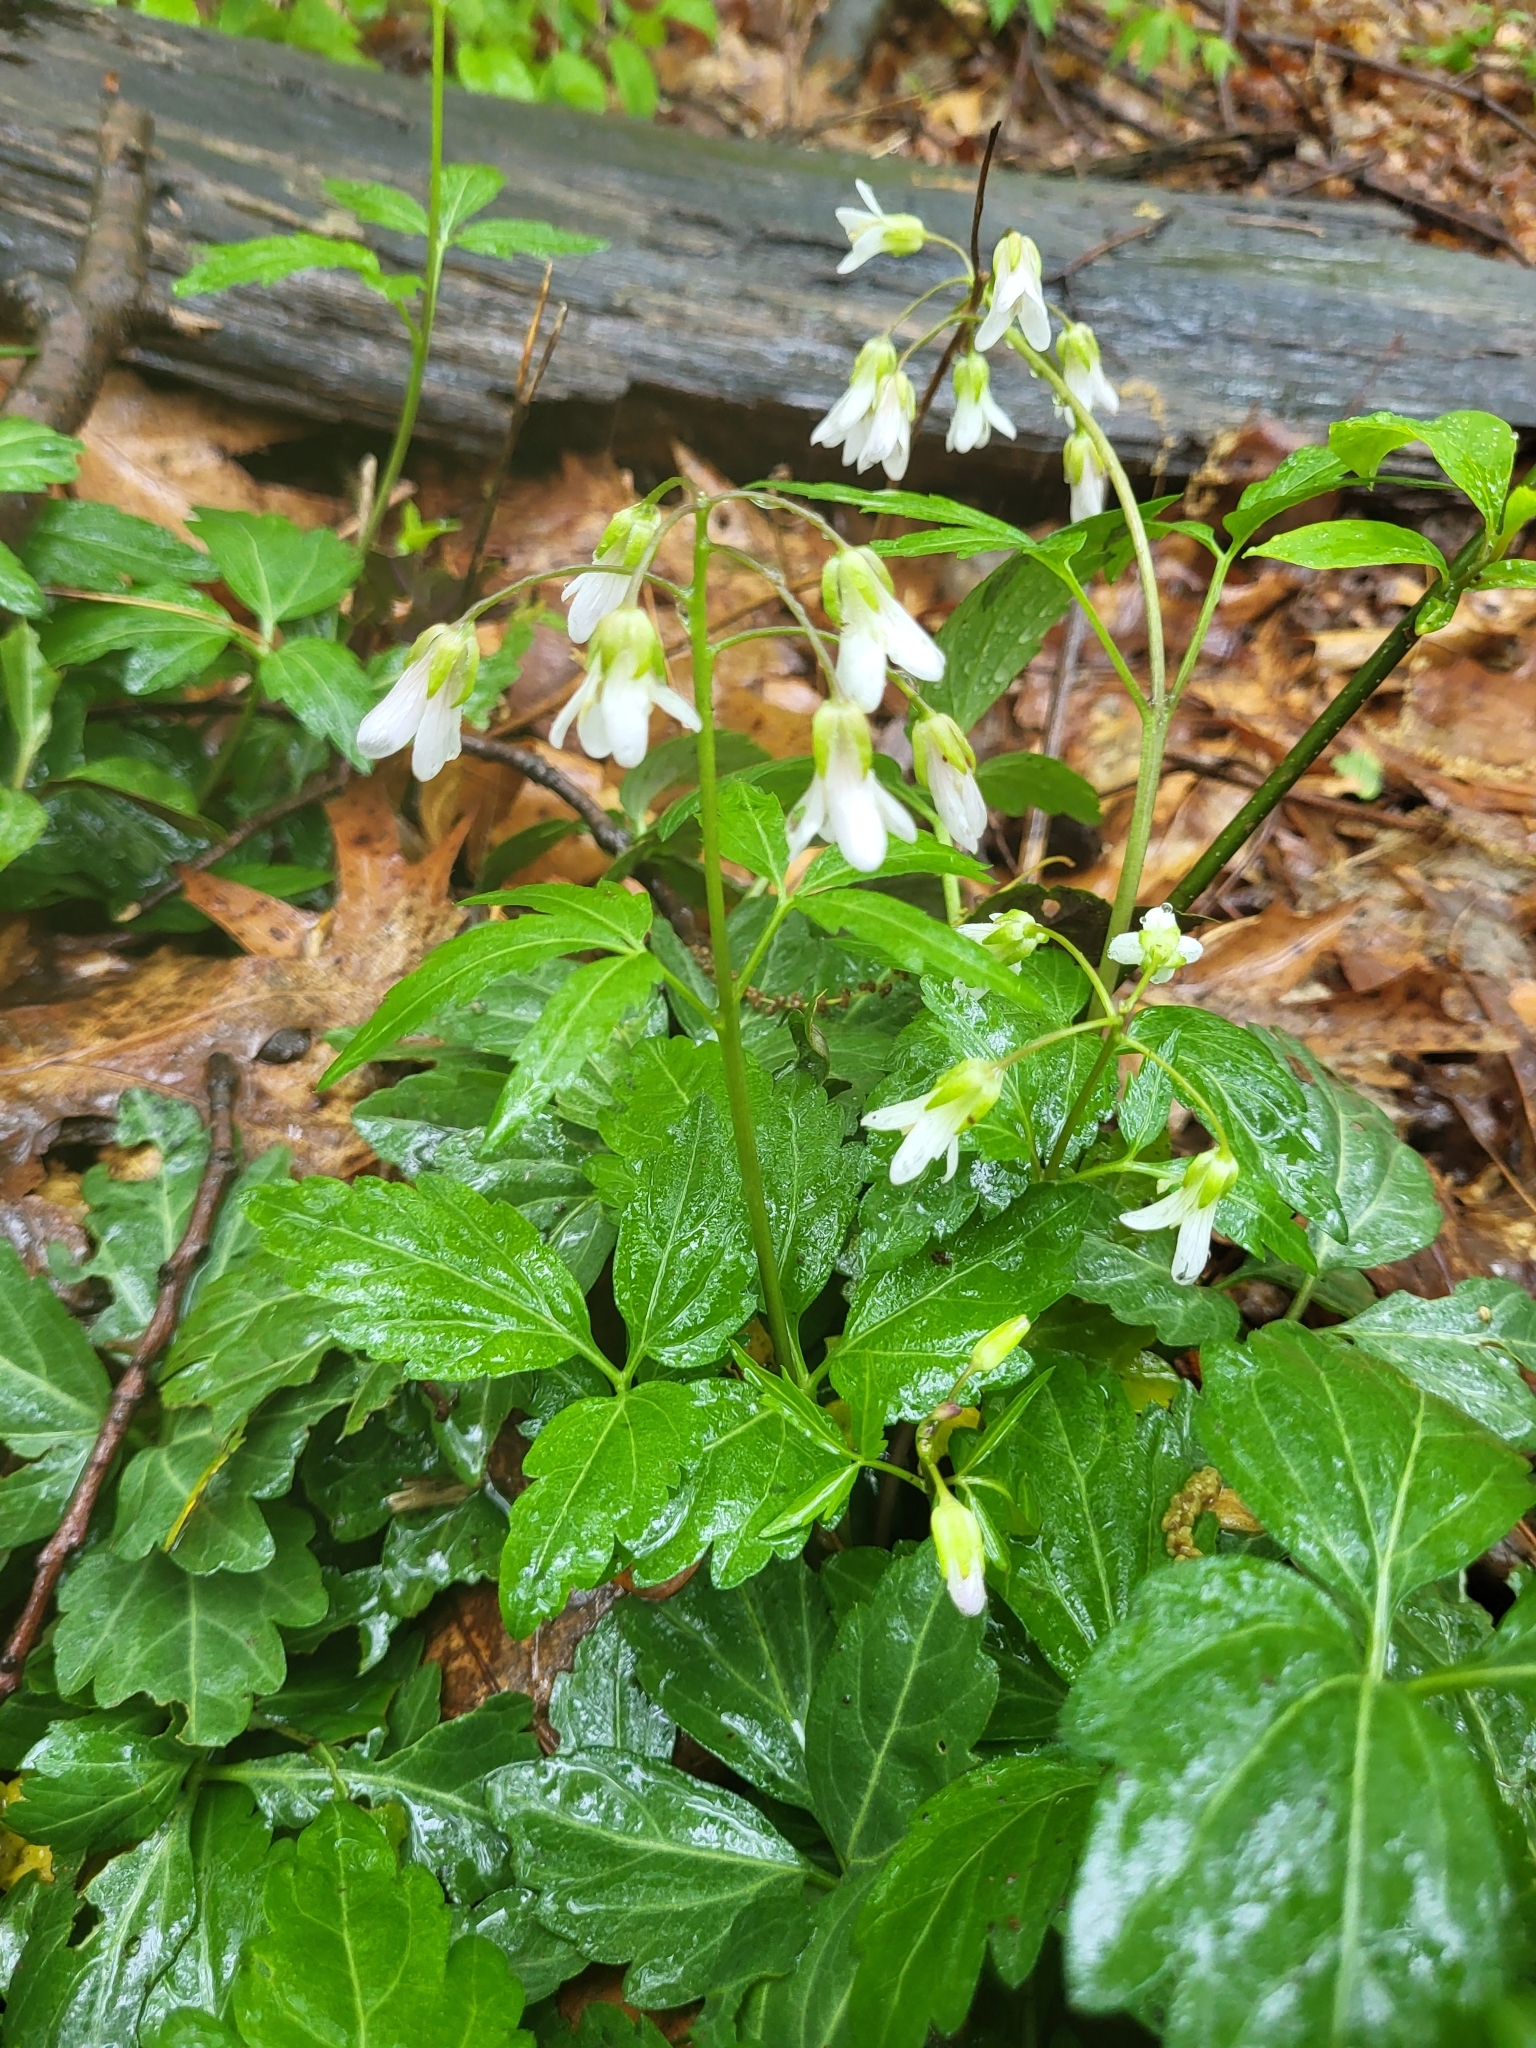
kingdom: Plantae
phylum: Tracheophyta
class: Magnoliopsida
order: Brassicales
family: Brassicaceae
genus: Cardamine
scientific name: Cardamine diphylla
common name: Broad-leaved toothwort
